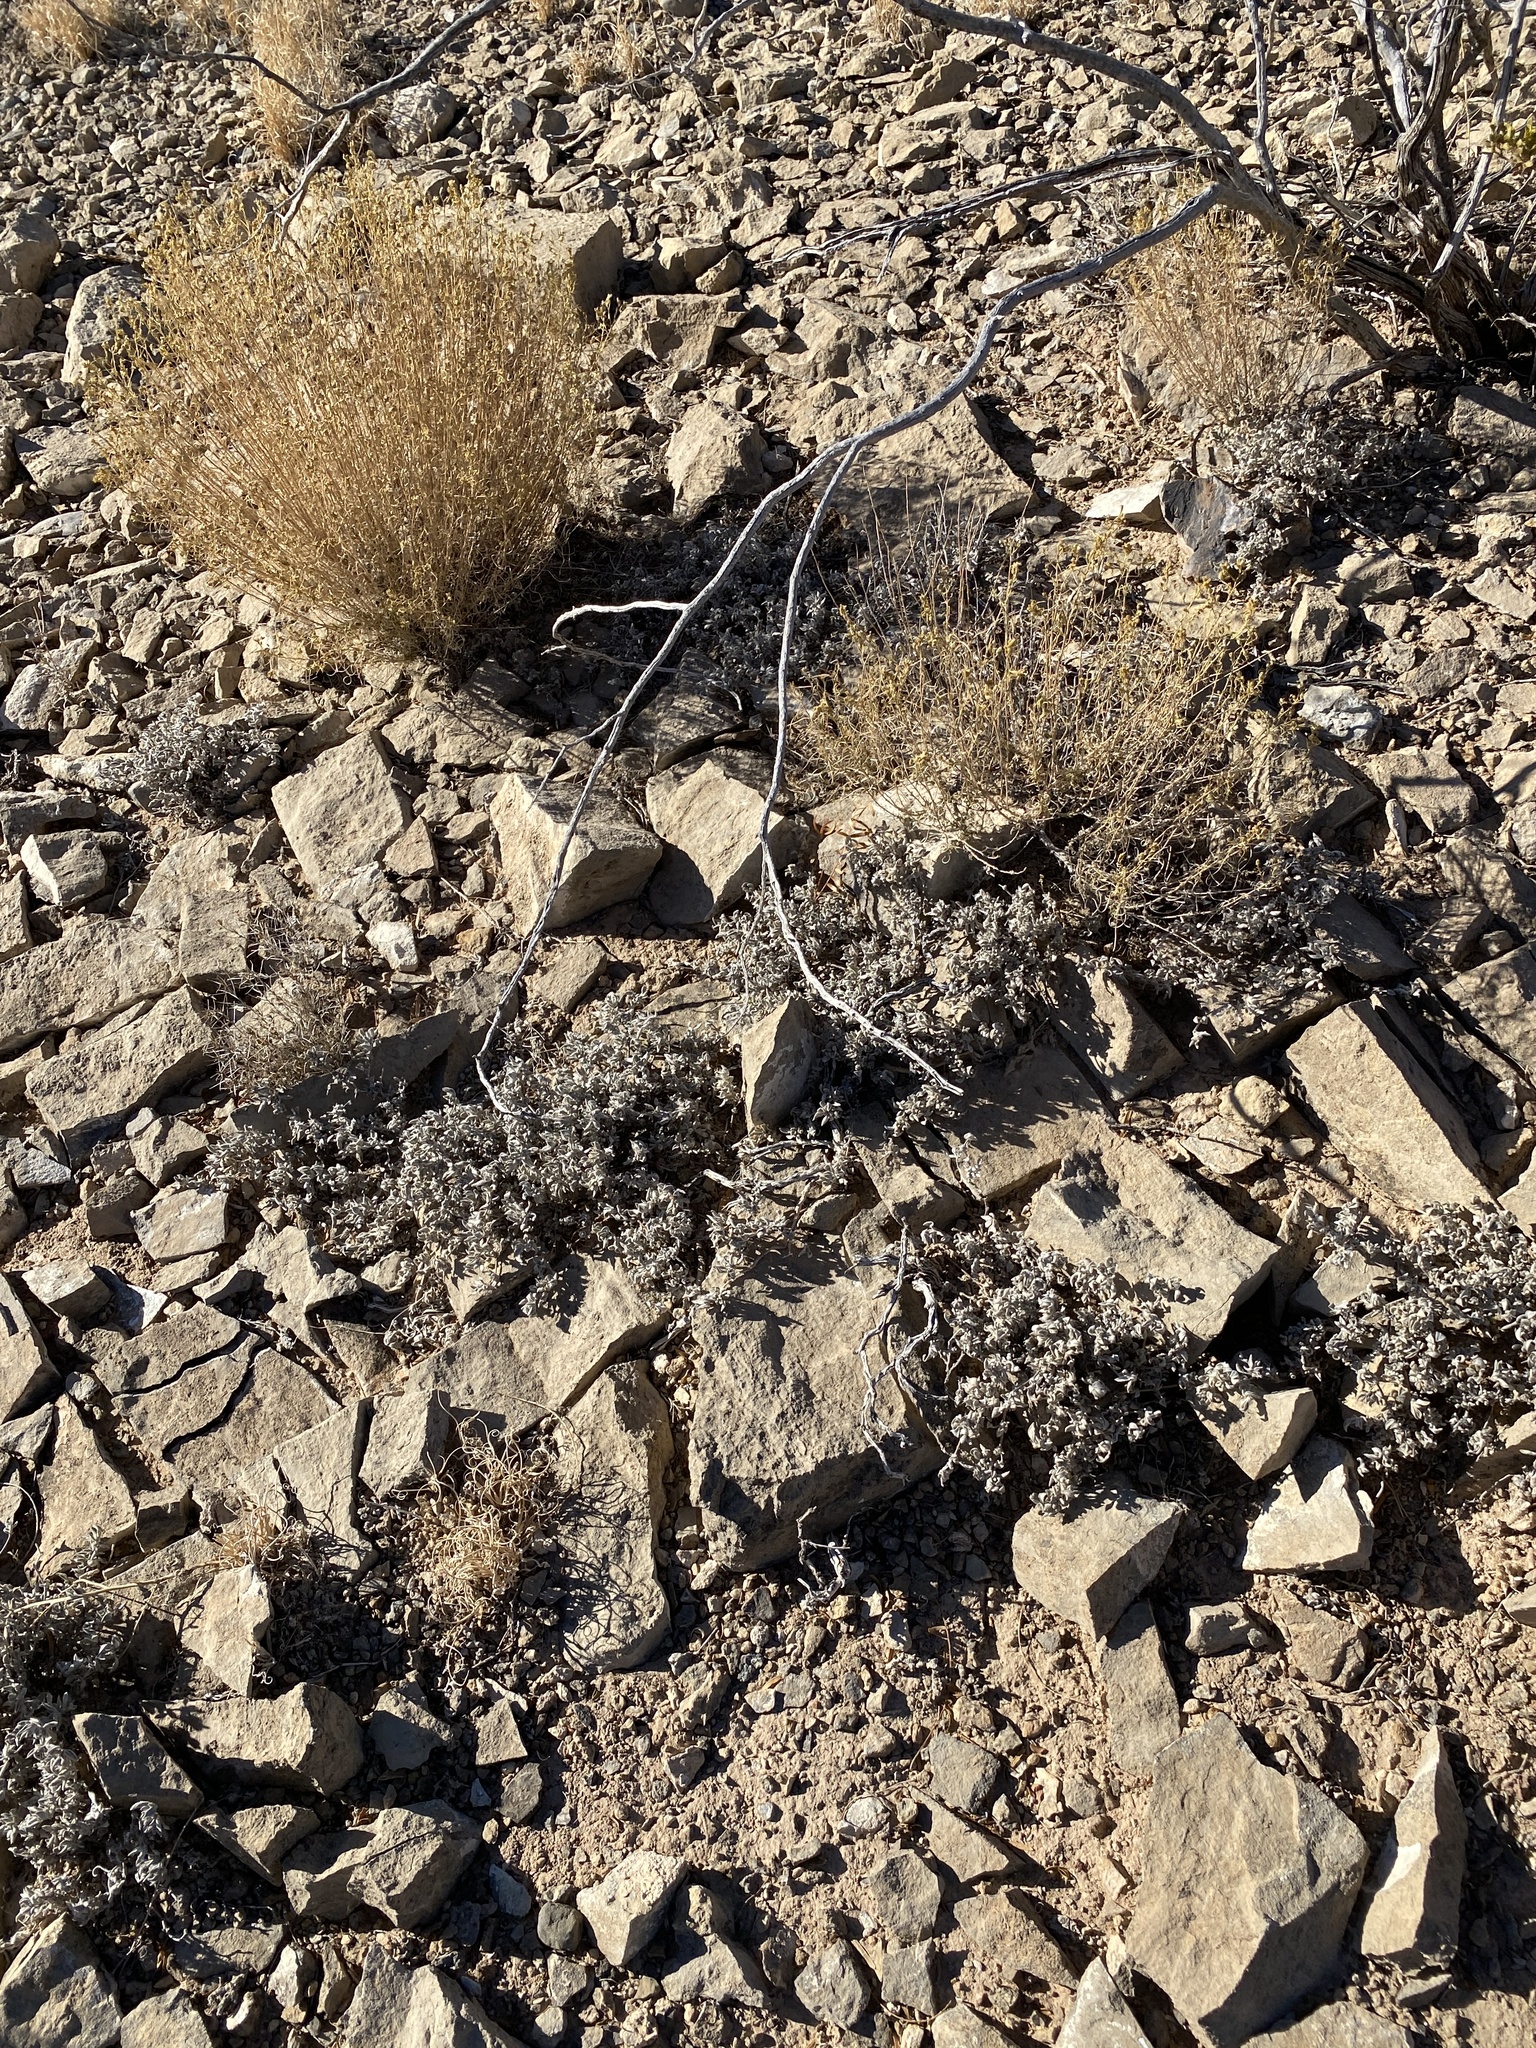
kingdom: Plantae
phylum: Tracheophyta
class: Magnoliopsida
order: Boraginales
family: Ehretiaceae
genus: Tiquilia
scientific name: Tiquilia canescens
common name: Hairy tiquilia
